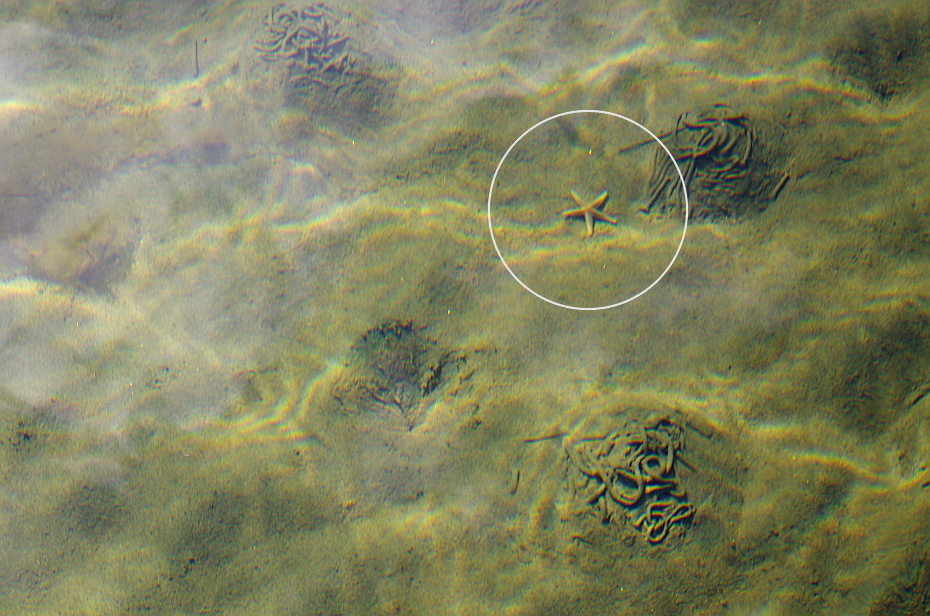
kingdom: Animalia
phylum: Echinodermata
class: Asteroidea
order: Forcipulatida
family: Asteriidae
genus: Asterias
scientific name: Asterias rubens
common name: Common starfish
